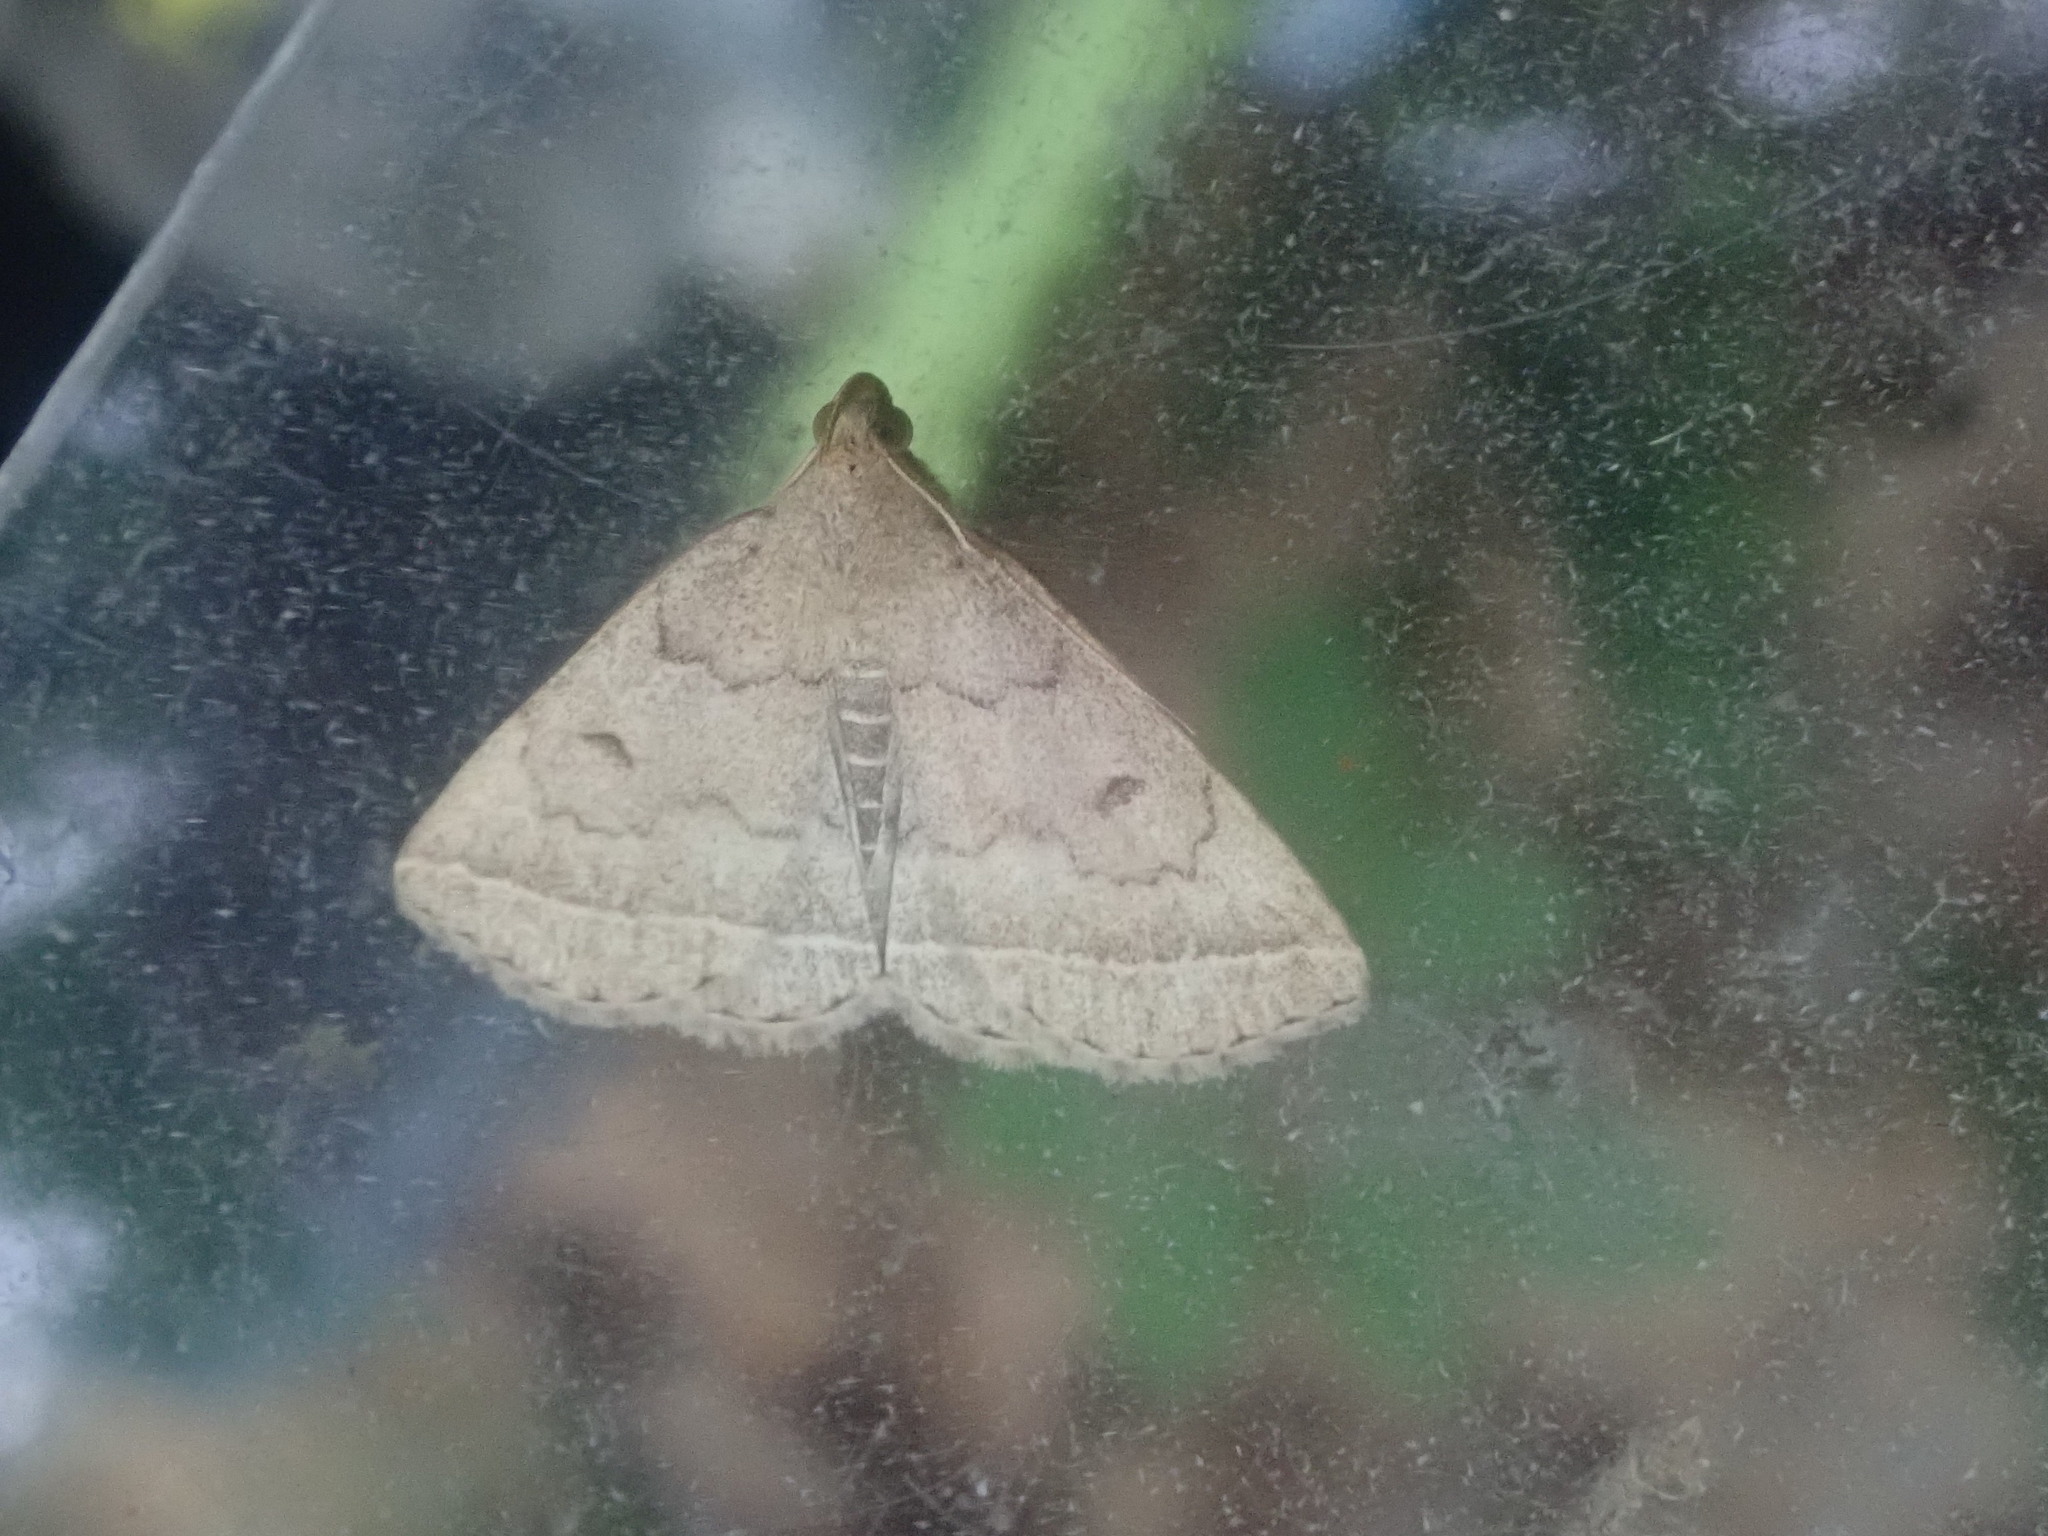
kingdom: Animalia
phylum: Arthropoda
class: Insecta
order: Lepidoptera
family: Erebidae
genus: Zanclognatha
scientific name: Zanclognatha jacchusalis
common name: Yellowish zanclognatha
